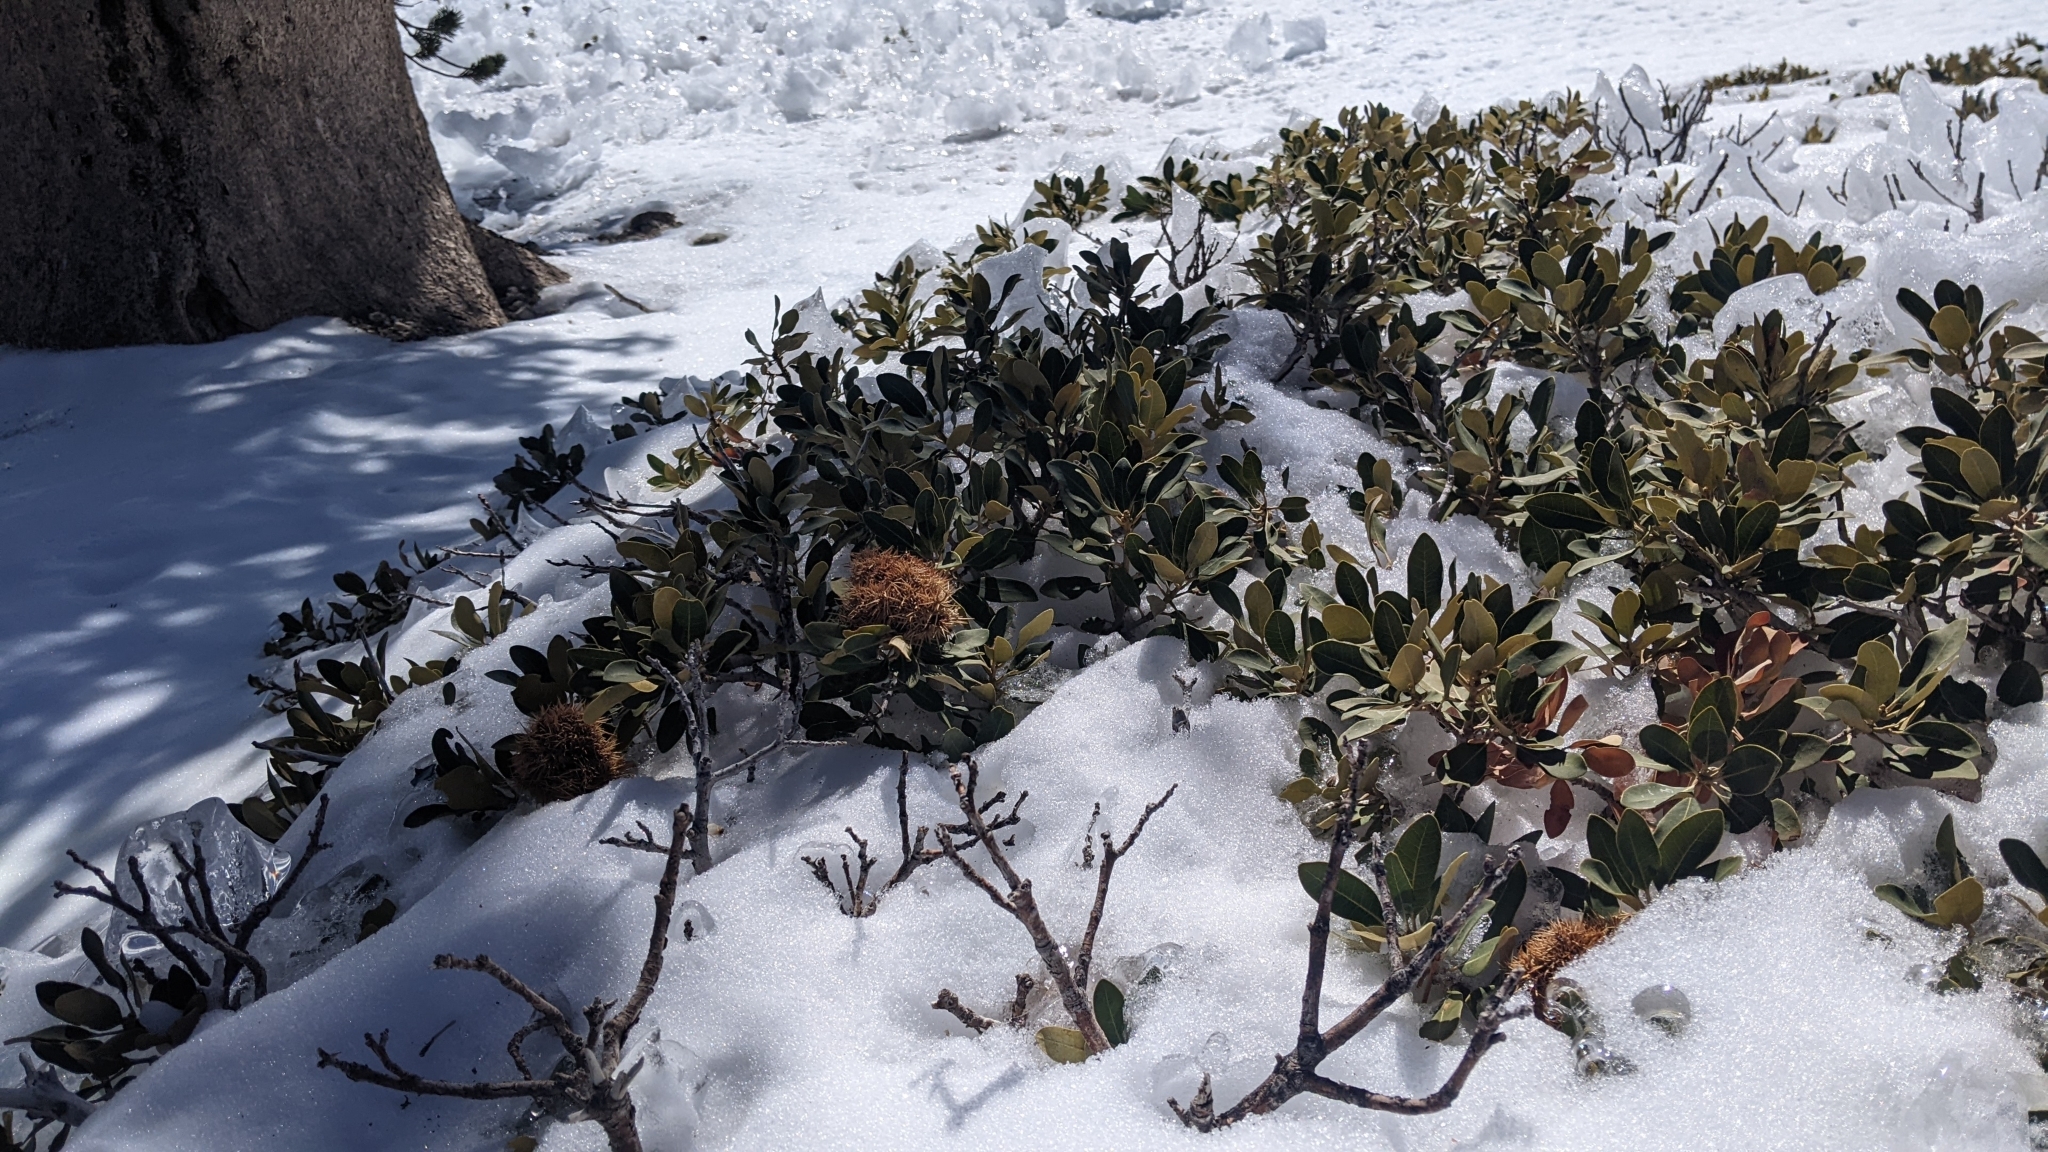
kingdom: Plantae
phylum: Tracheophyta
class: Magnoliopsida
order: Fagales
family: Fagaceae
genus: Chrysolepis
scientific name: Chrysolepis sempervirens
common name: Bush chinquapin
